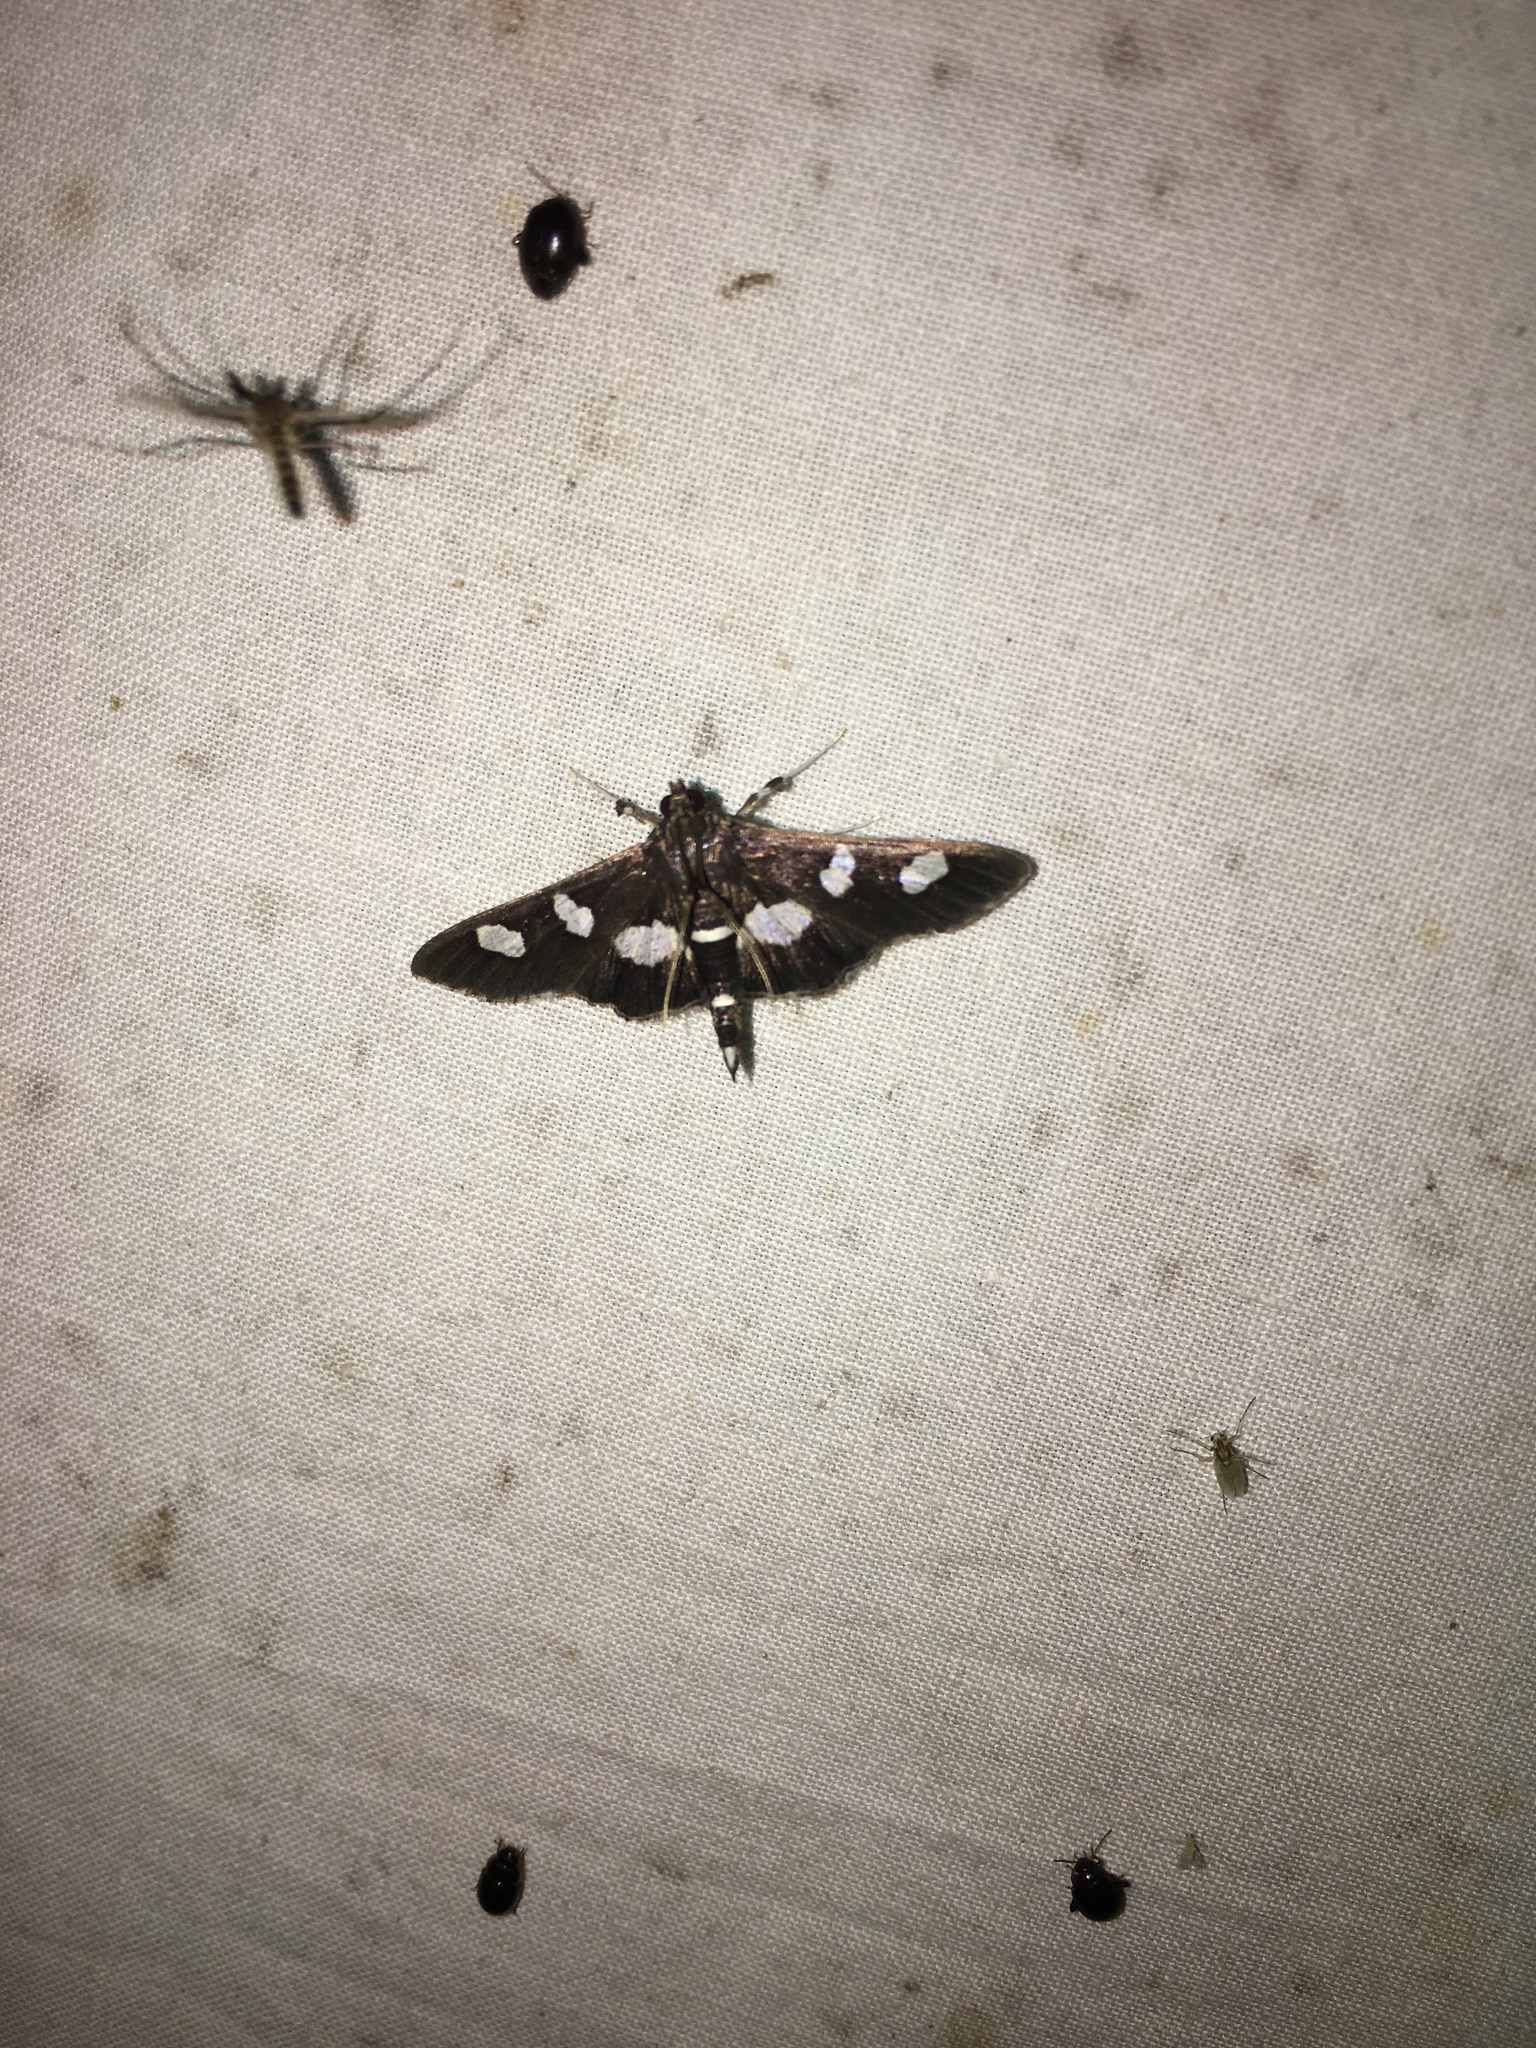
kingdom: Animalia
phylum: Arthropoda
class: Insecta
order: Lepidoptera
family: Crambidae
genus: Desmia
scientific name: Desmia
